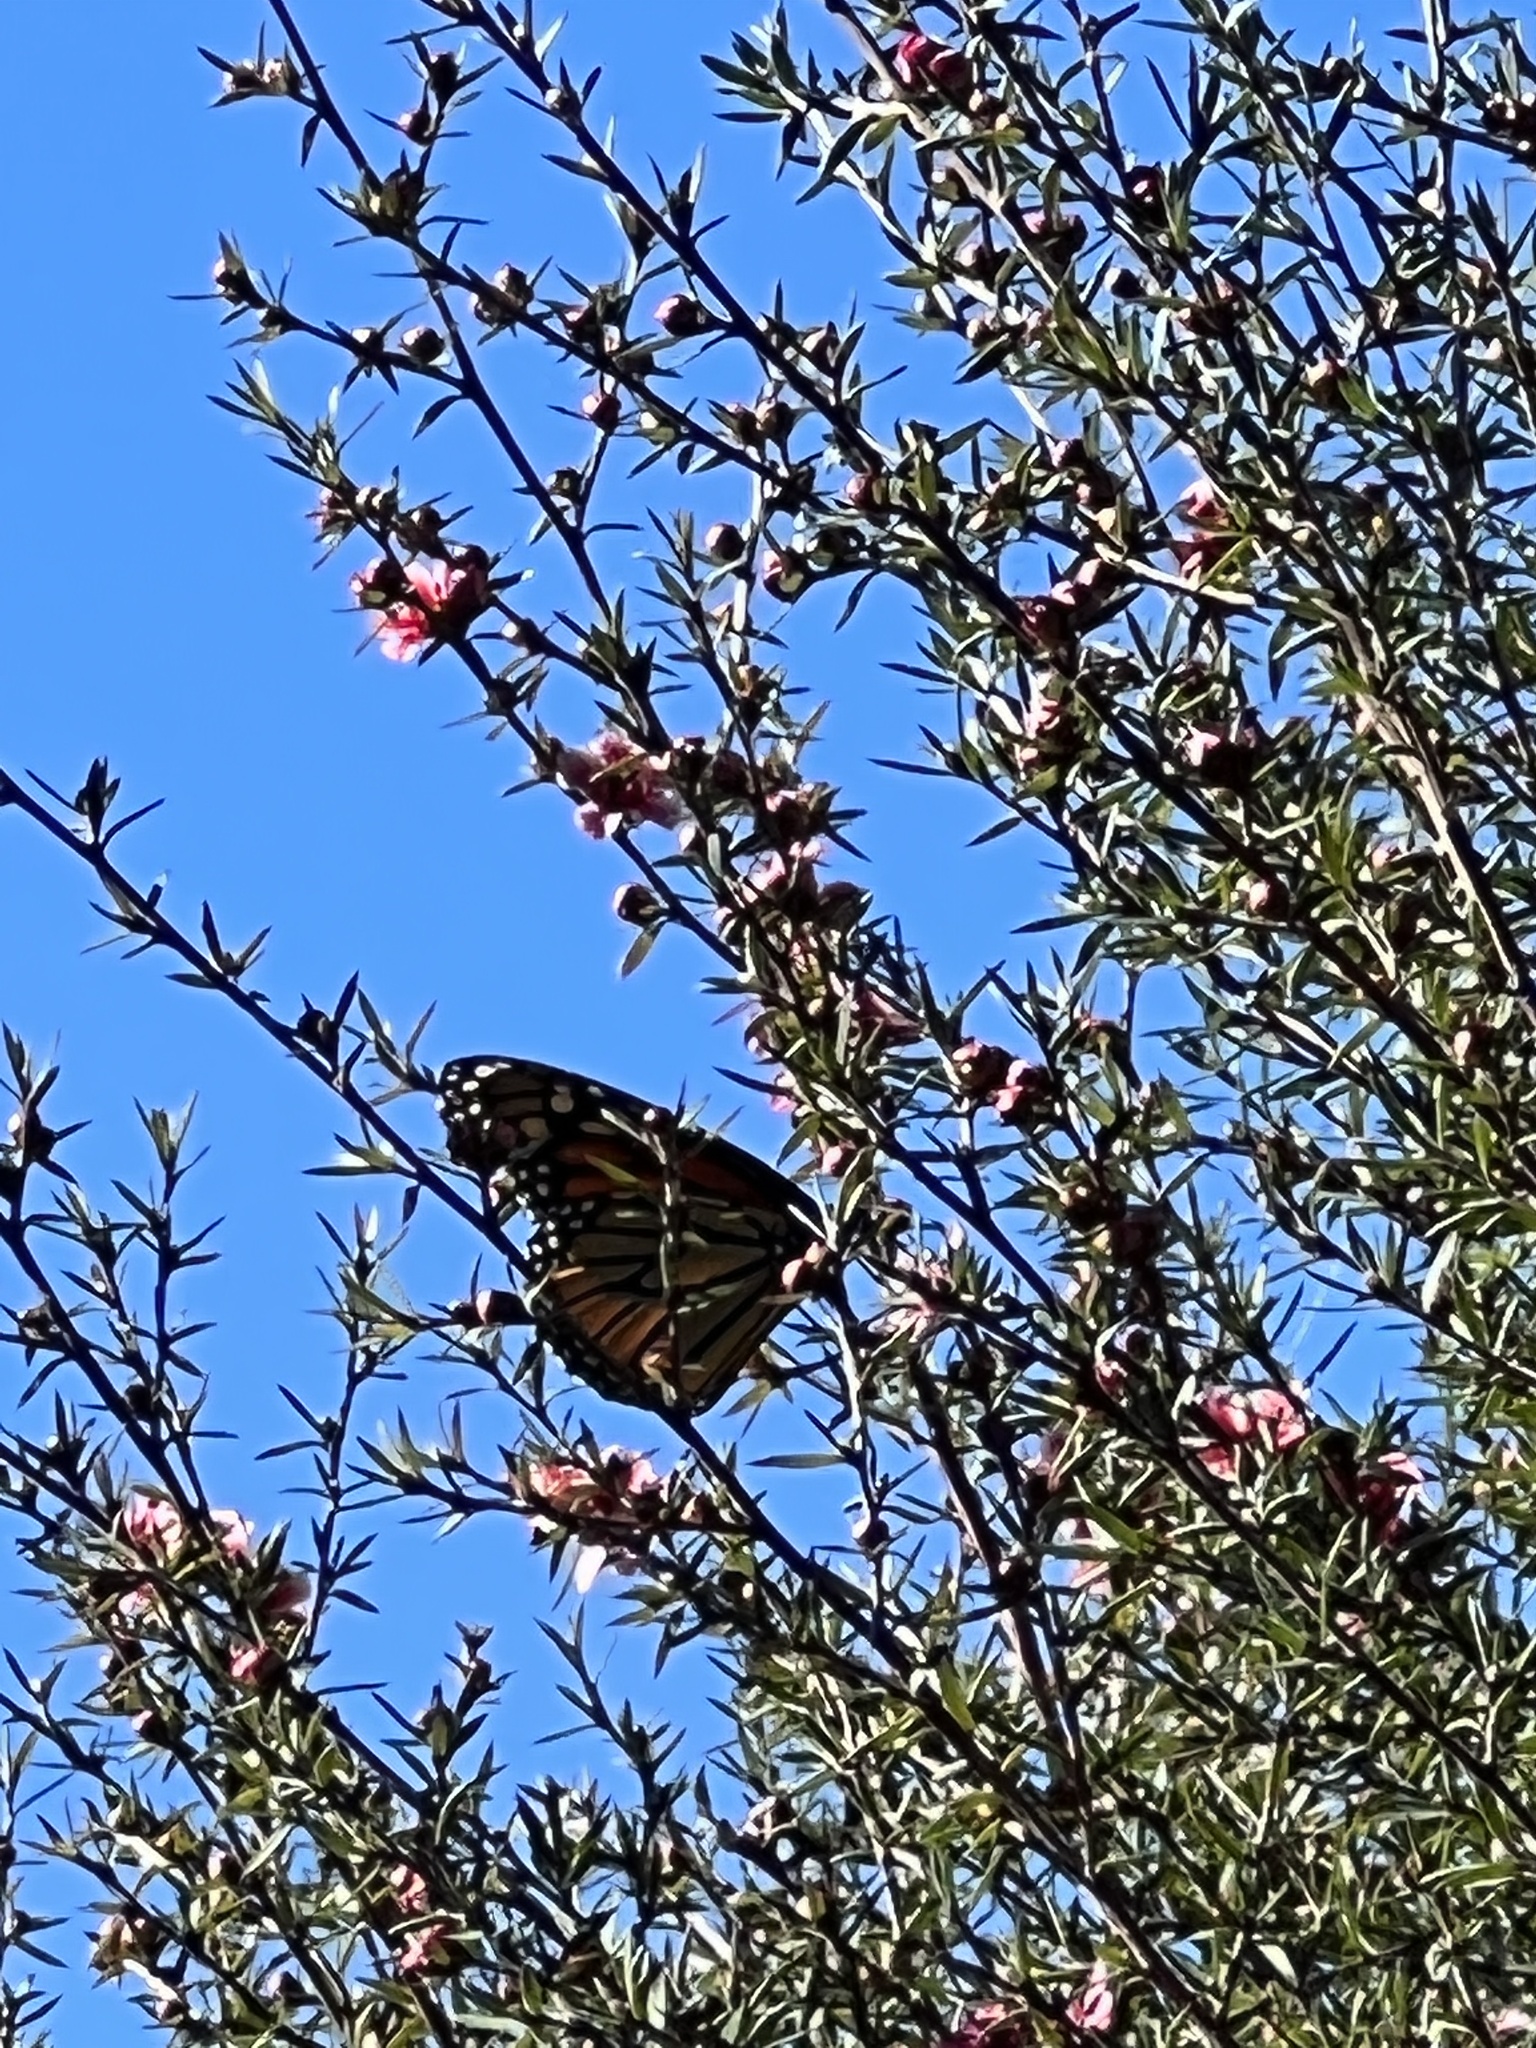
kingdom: Animalia
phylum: Arthropoda
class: Insecta
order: Lepidoptera
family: Nymphalidae
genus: Danaus
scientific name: Danaus plexippus
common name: Monarch
